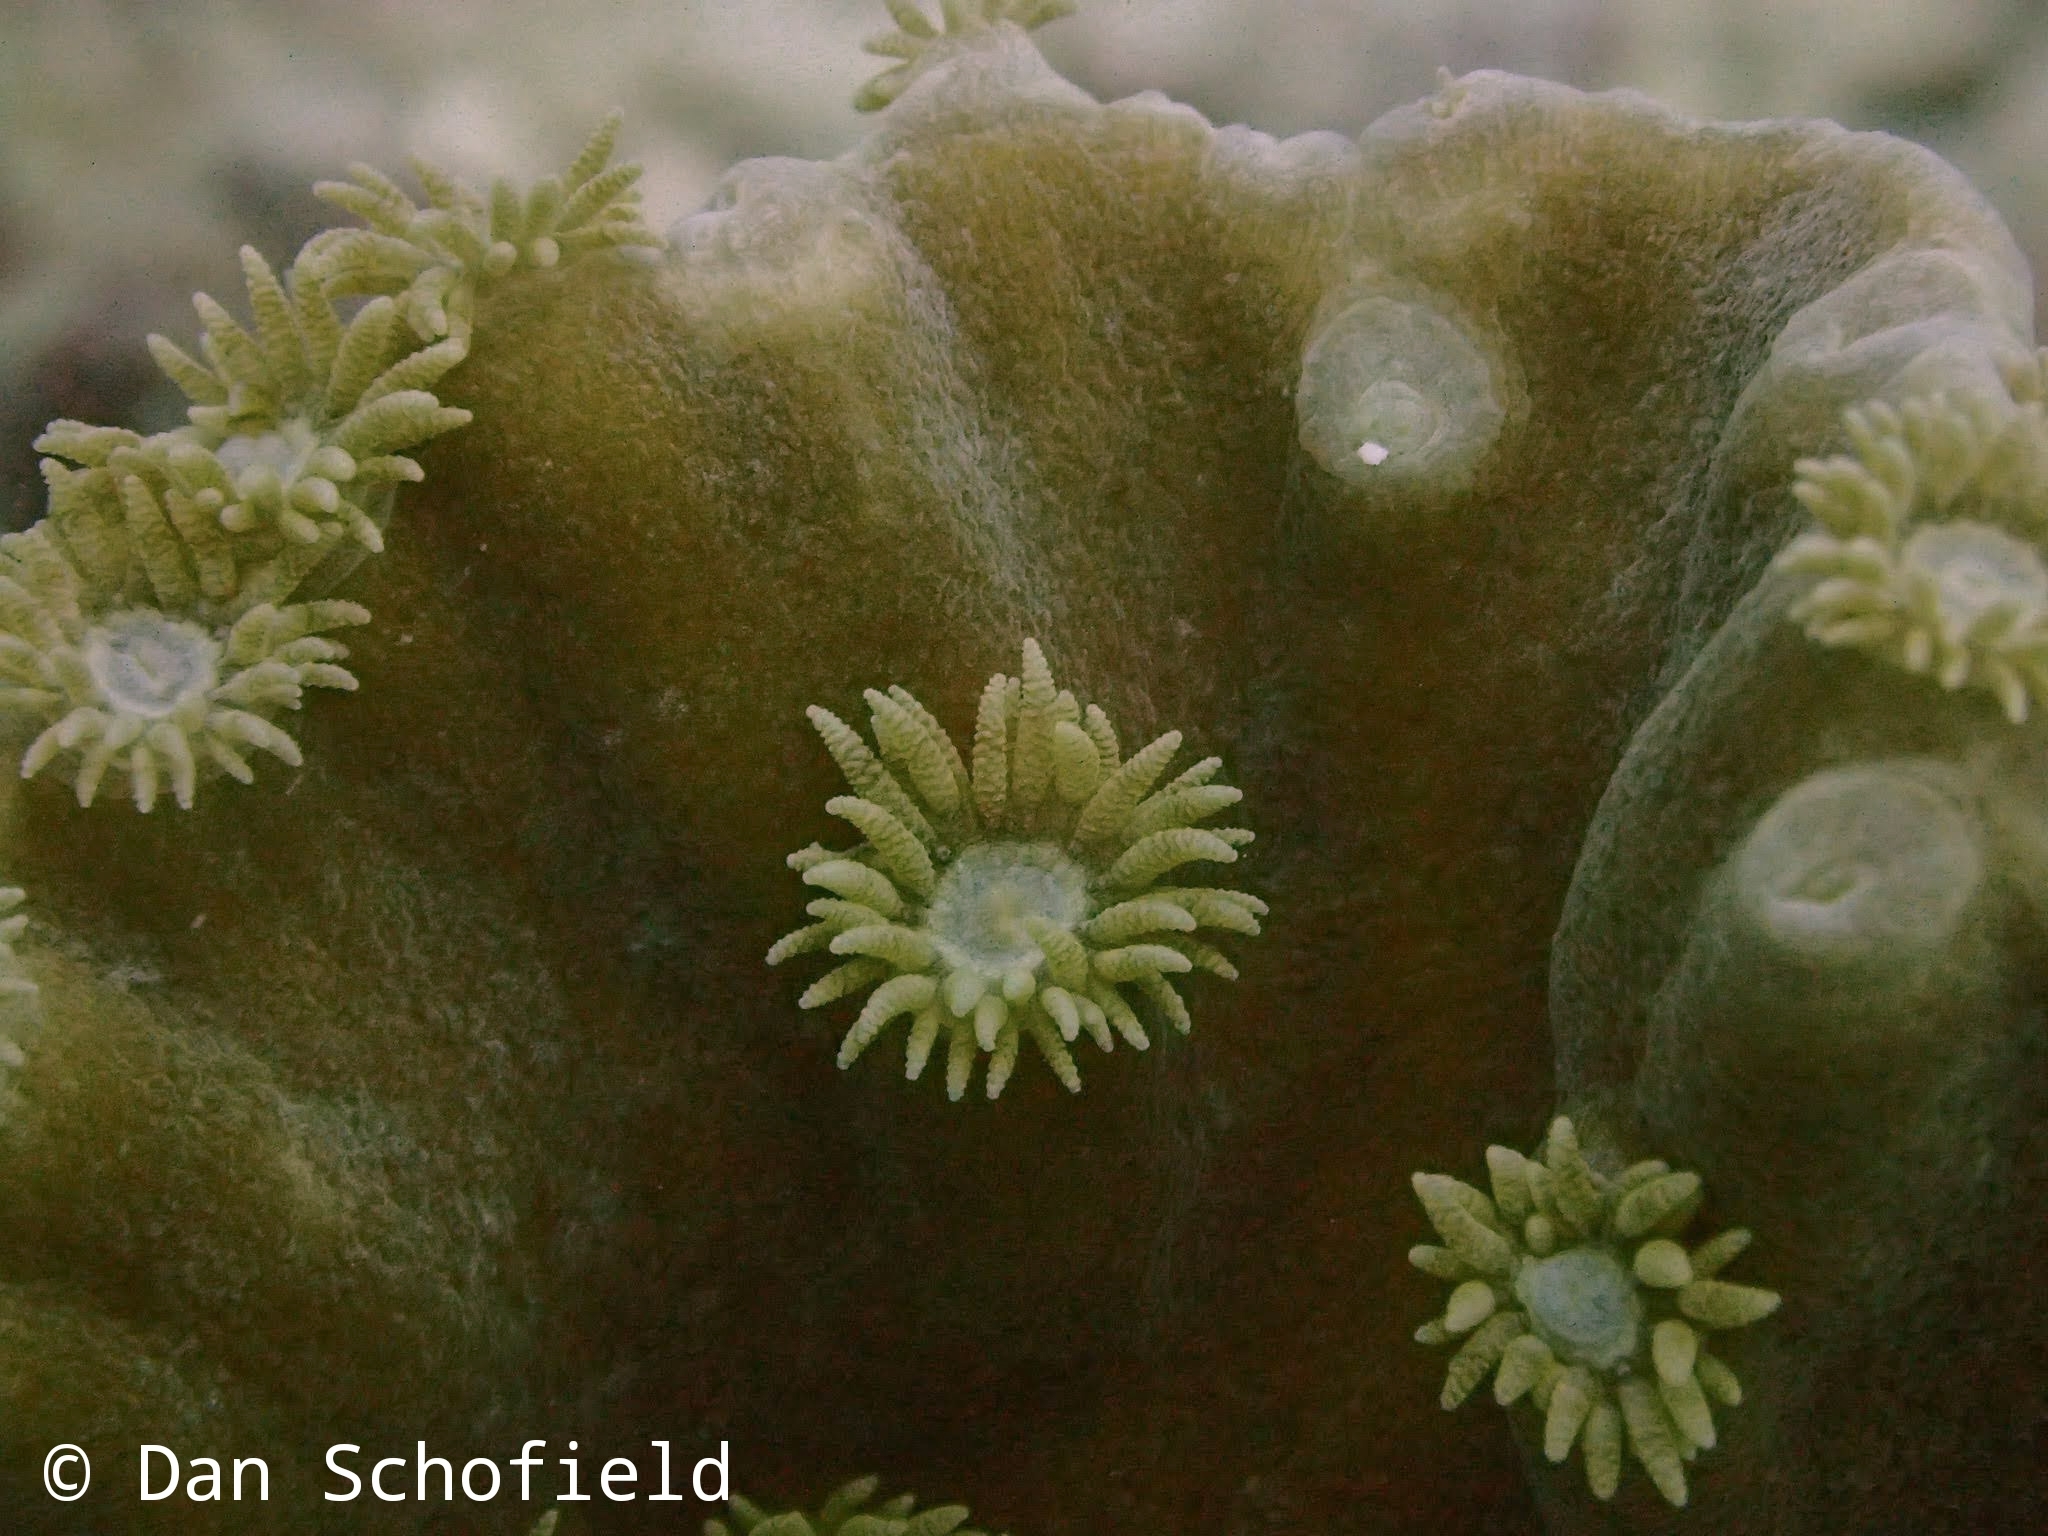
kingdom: Animalia
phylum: Cnidaria
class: Anthozoa
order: Scleractinia
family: Dendrophylliidae
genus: Duncanopsammia
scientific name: Duncanopsammia peltata
